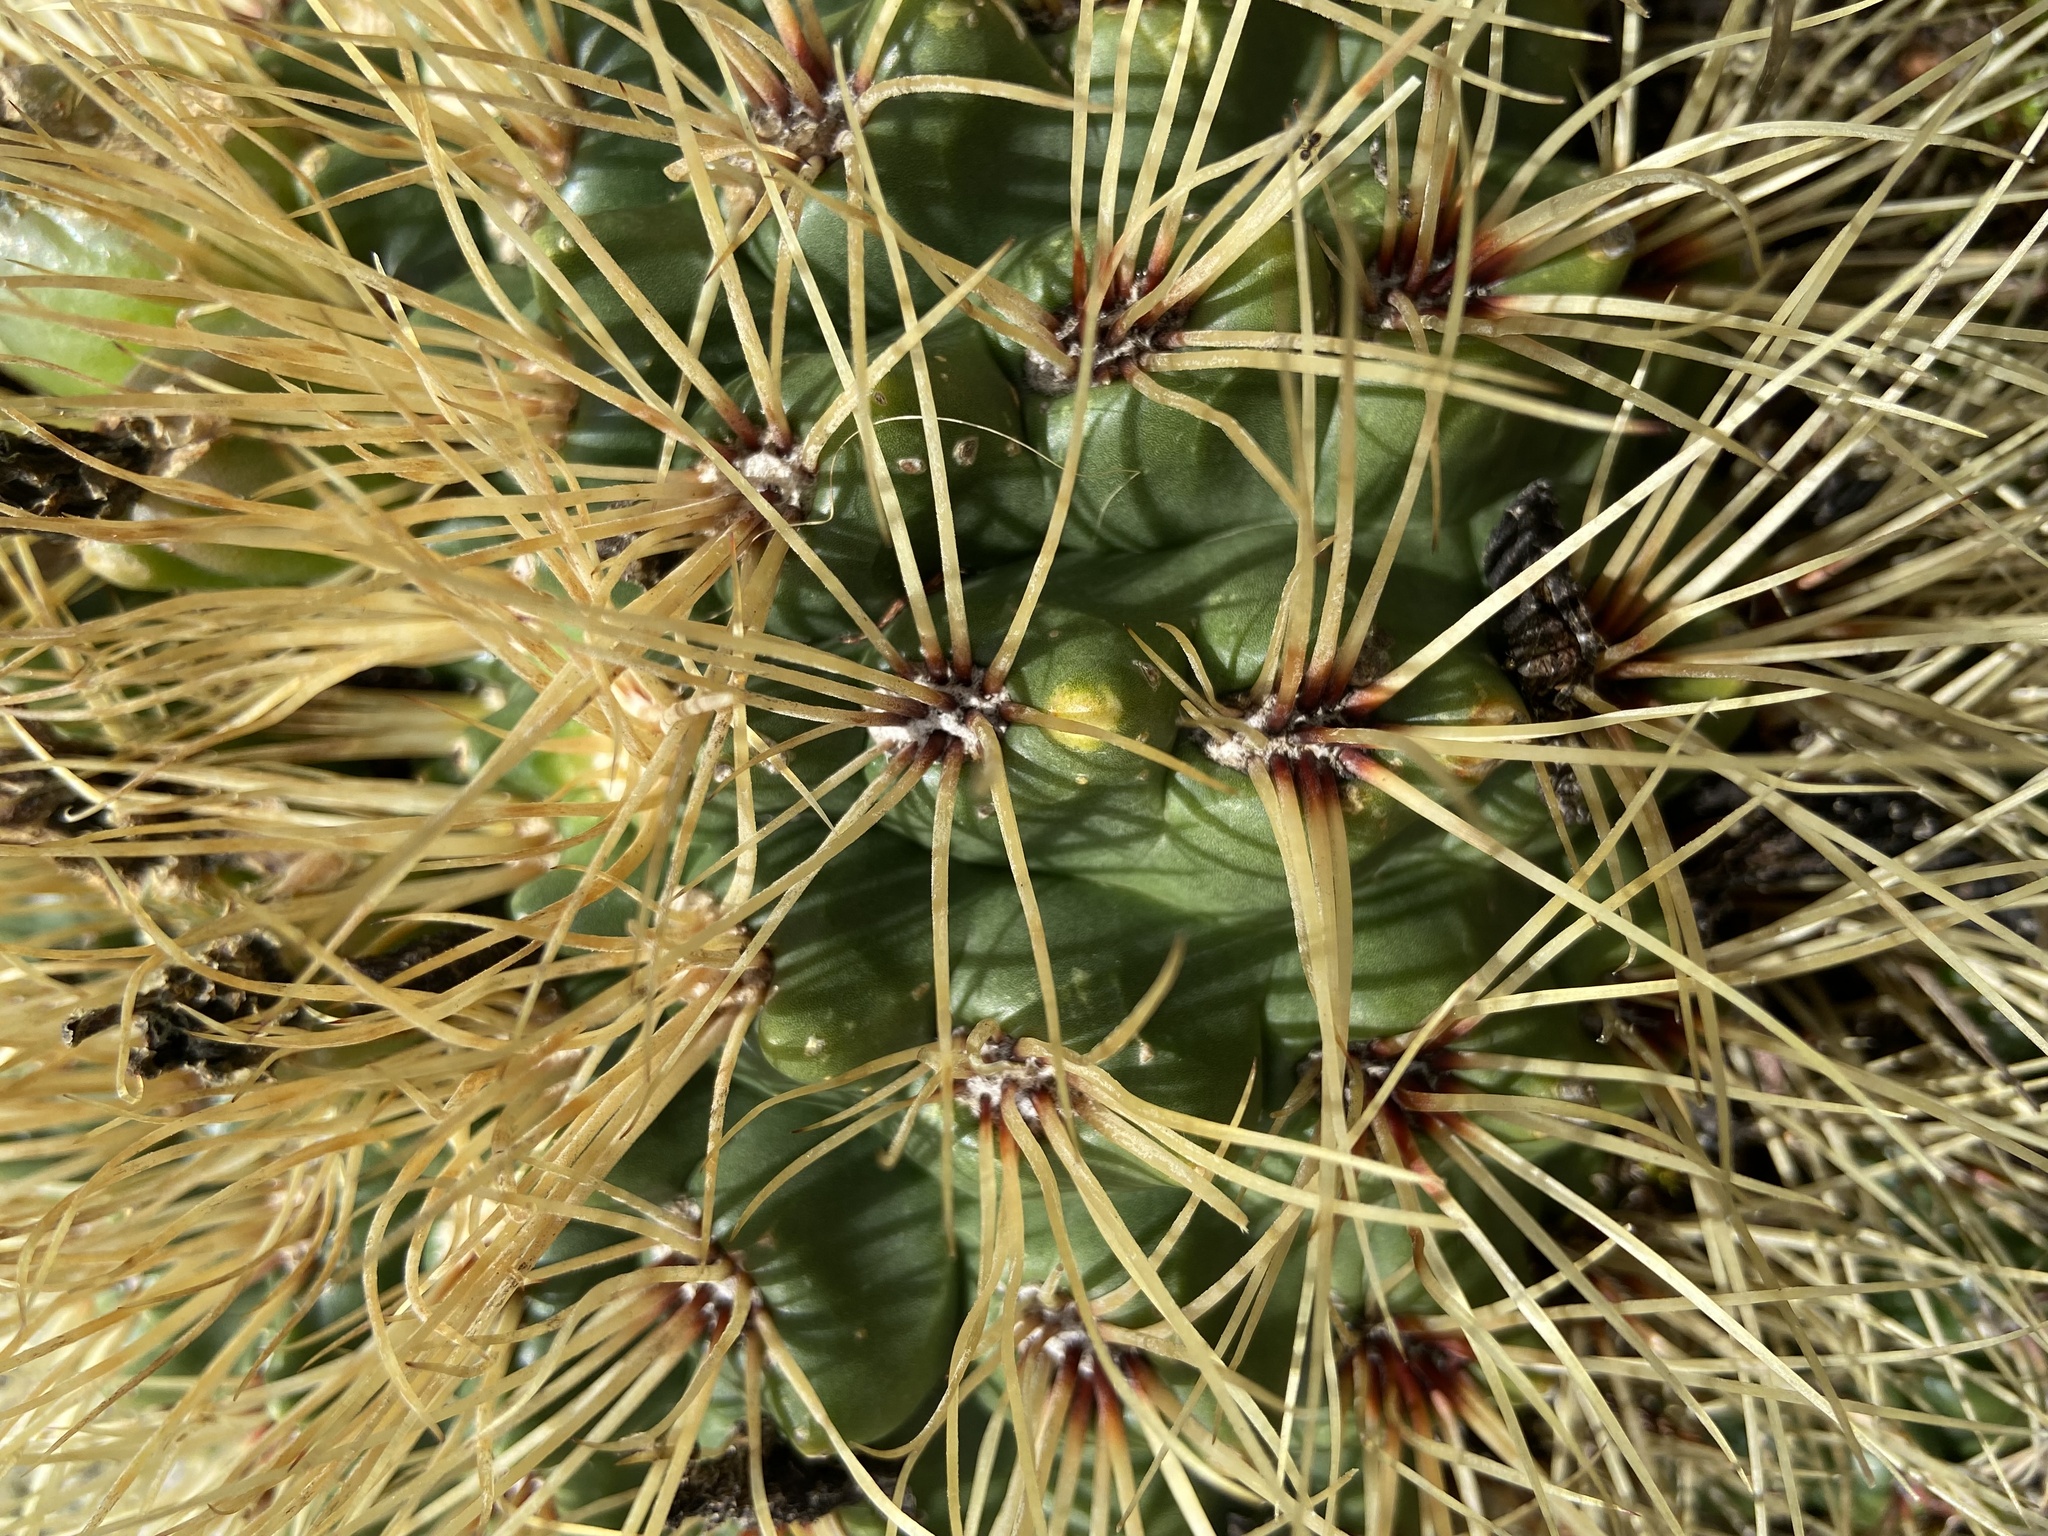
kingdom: Plantae
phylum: Tracheophyta
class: Magnoliopsida
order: Caryophyllales
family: Cactaceae
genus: Gymnocalycium
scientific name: Gymnocalycium monvillei
